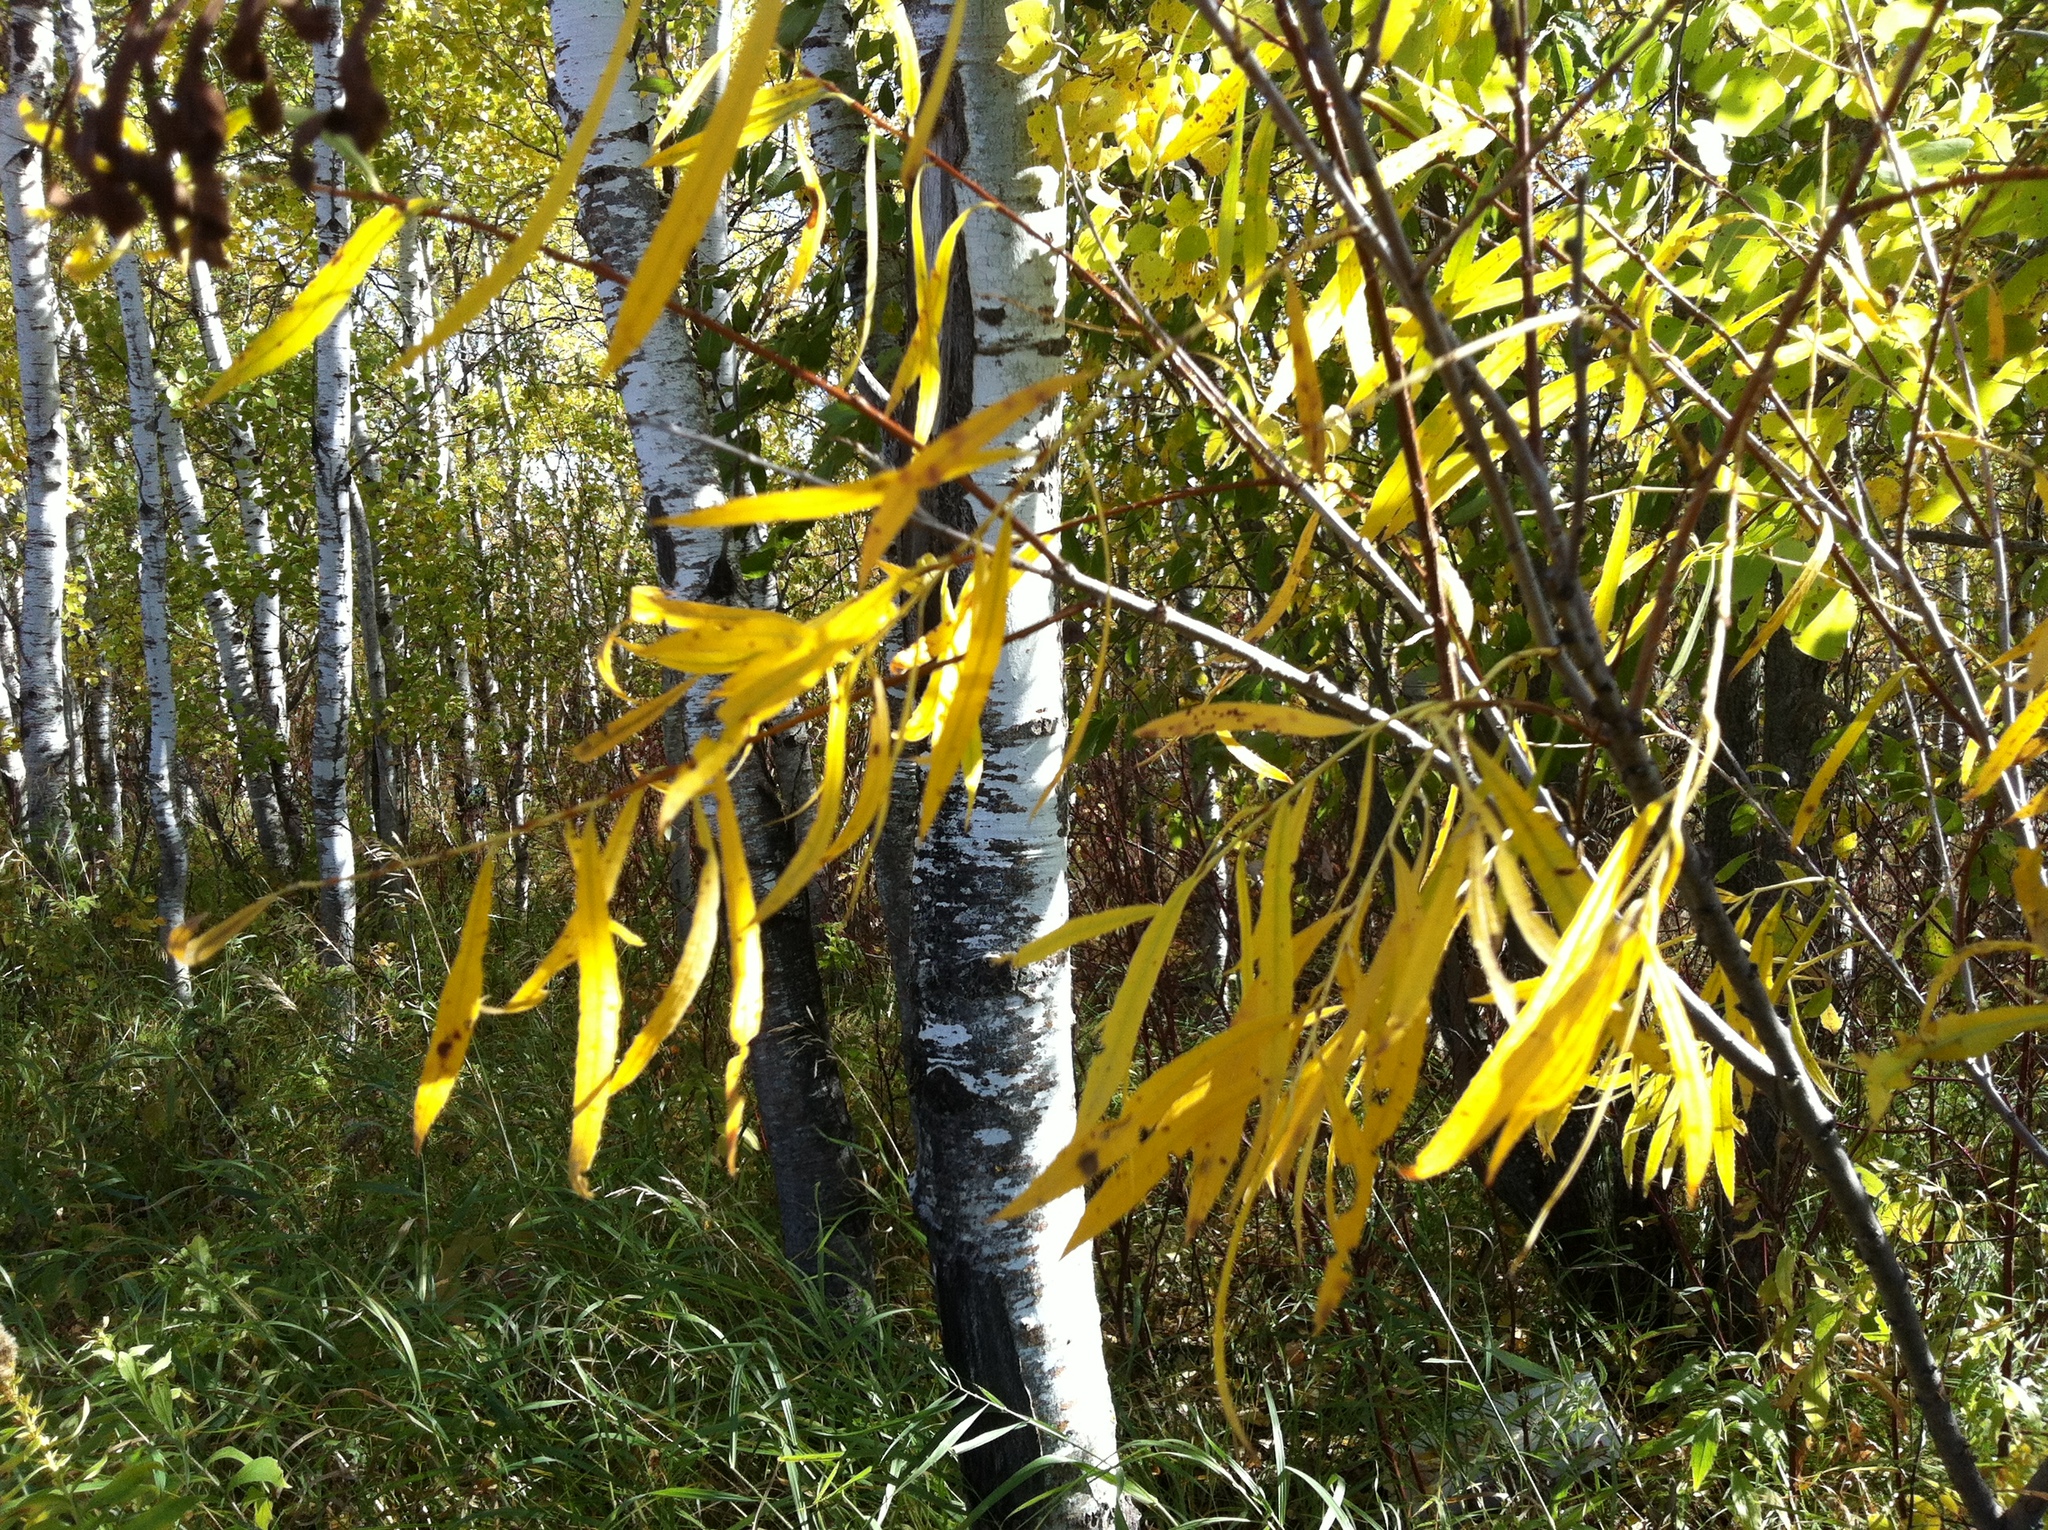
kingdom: Plantae
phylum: Tracheophyta
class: Magnoliopsida
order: Malpighiales
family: Salicaceae
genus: Populus
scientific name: Populus tremuloides
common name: Quaking aspen
